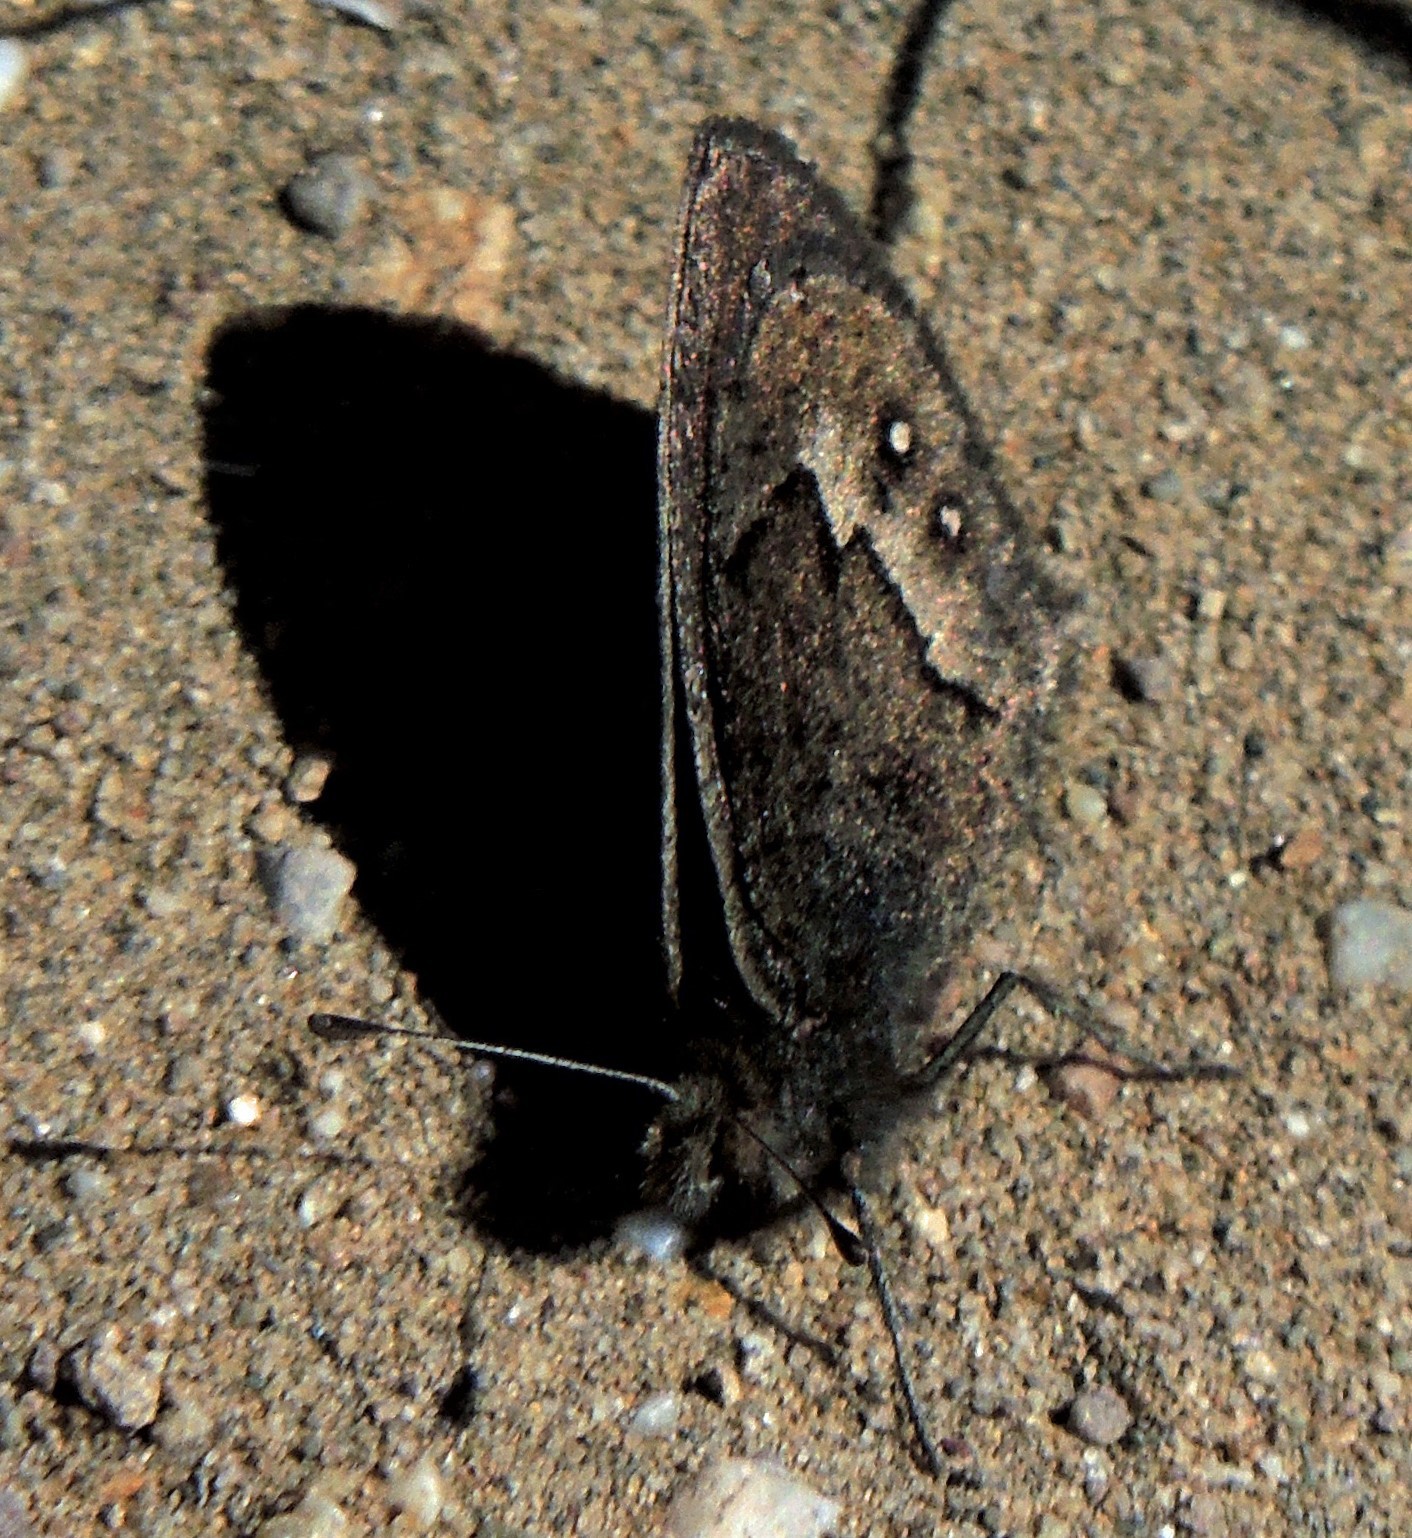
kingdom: Animalia
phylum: Arthropoda
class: Insecta
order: Lepidoptera
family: Nymphalidae
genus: Faunula
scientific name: Faunula patagonica
